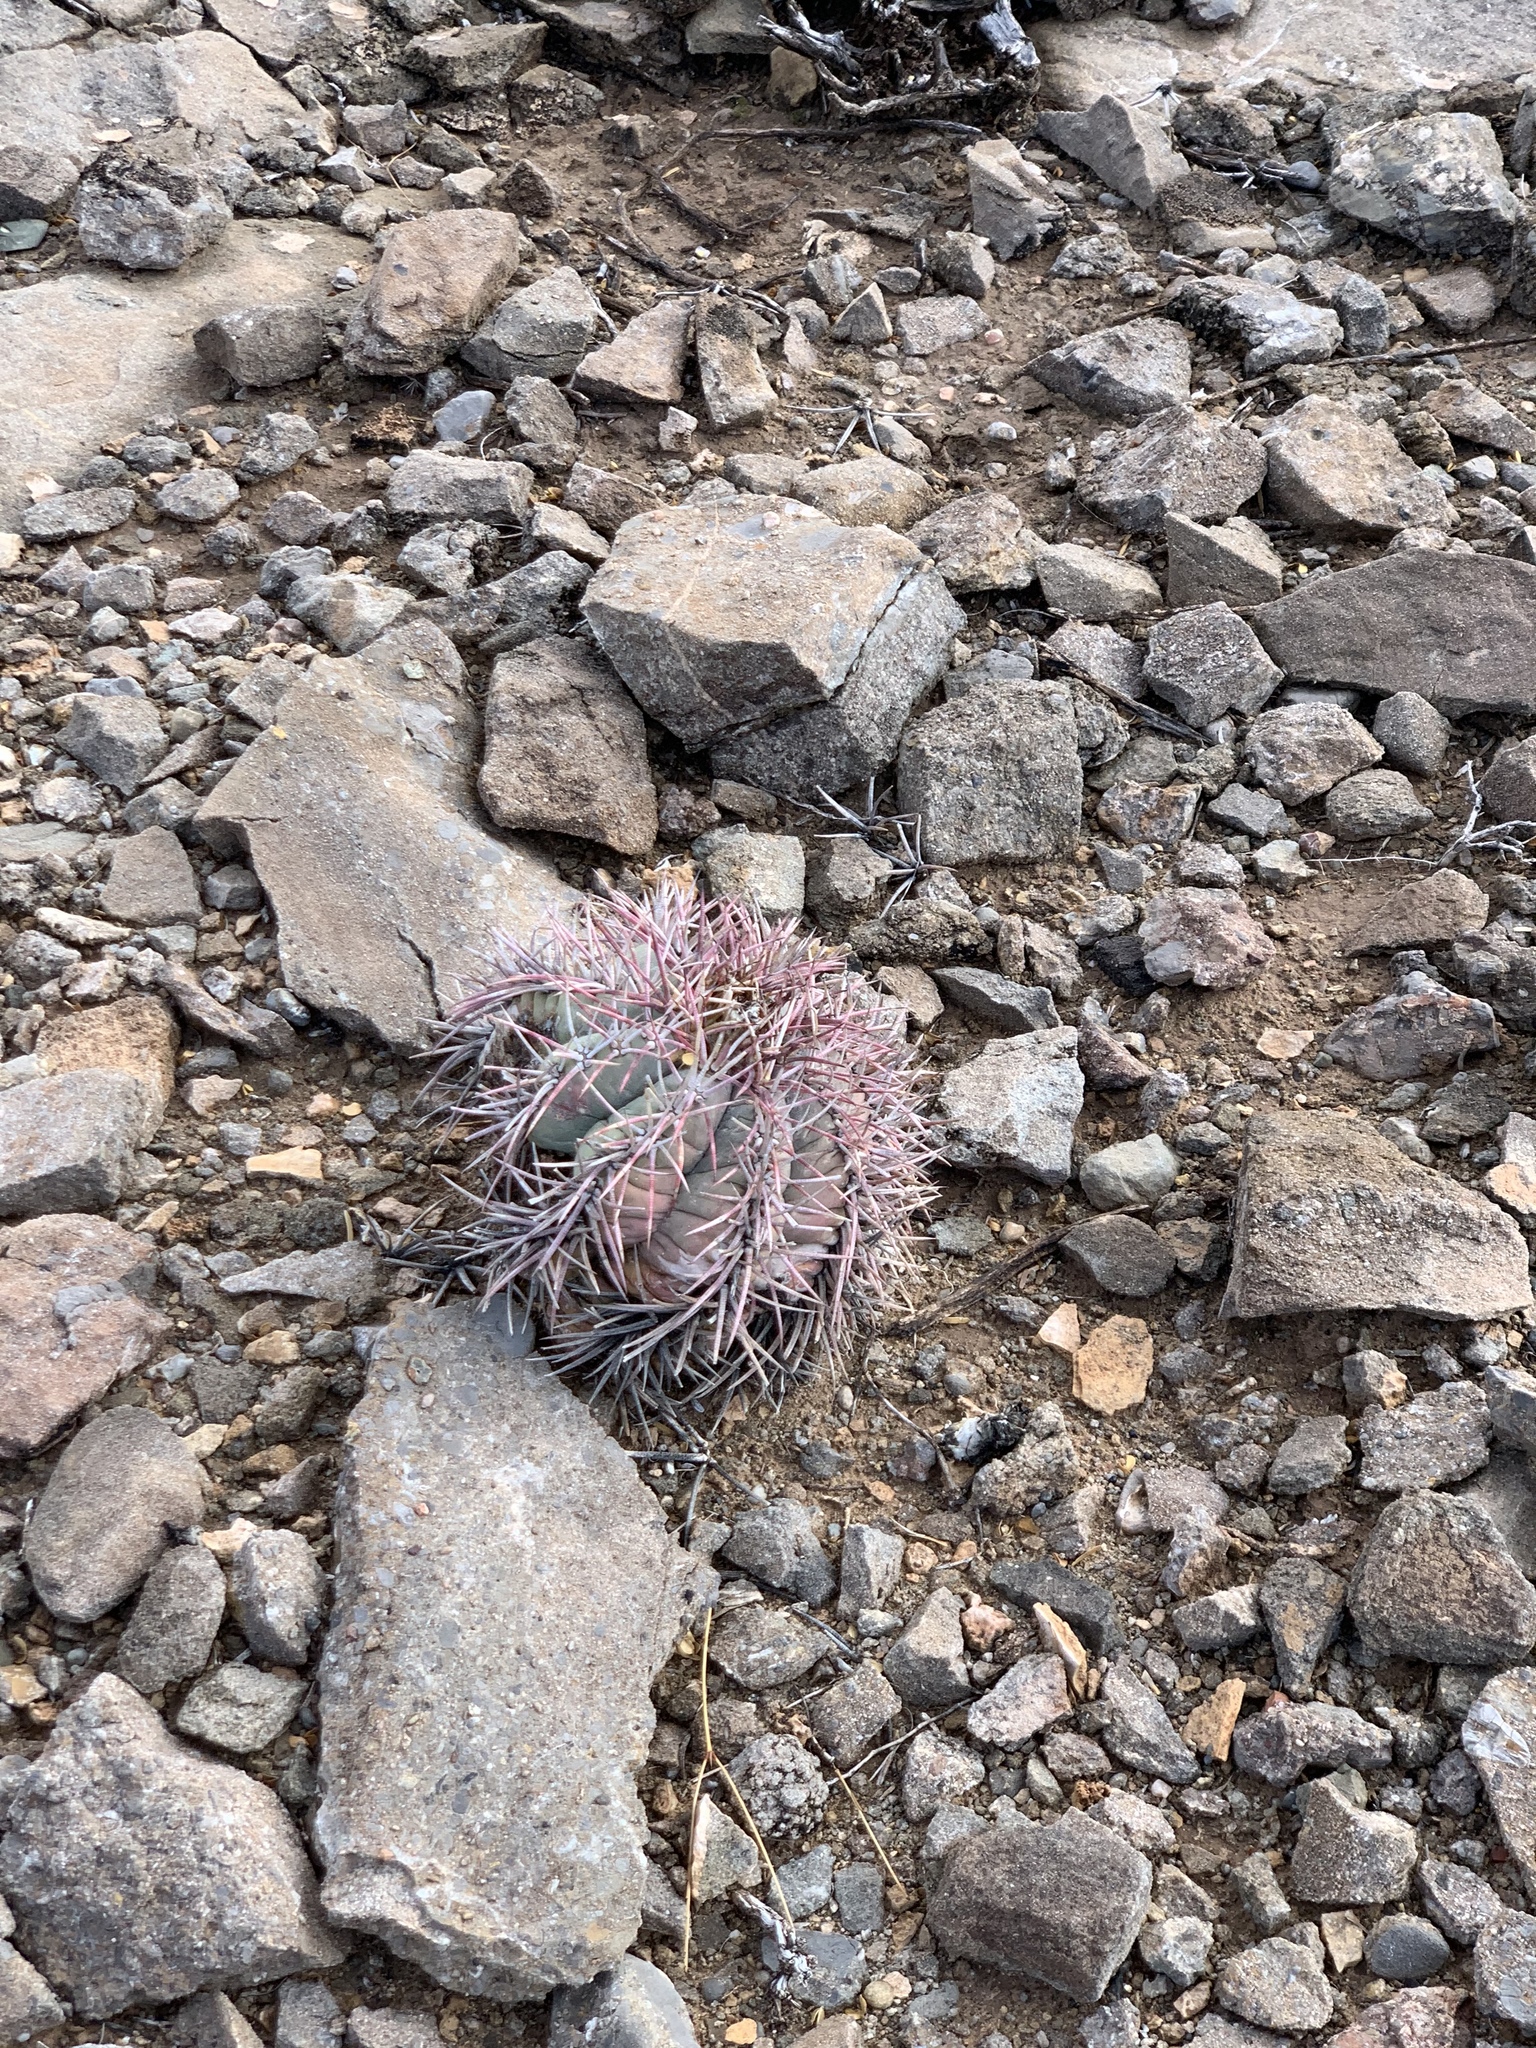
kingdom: Plantae
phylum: Tracheophyta
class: Magnoliopsida
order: Caryophyllales
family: Cactaceae
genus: Echinocactus
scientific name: Echinocactus horizonthalonius
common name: Devilshead
